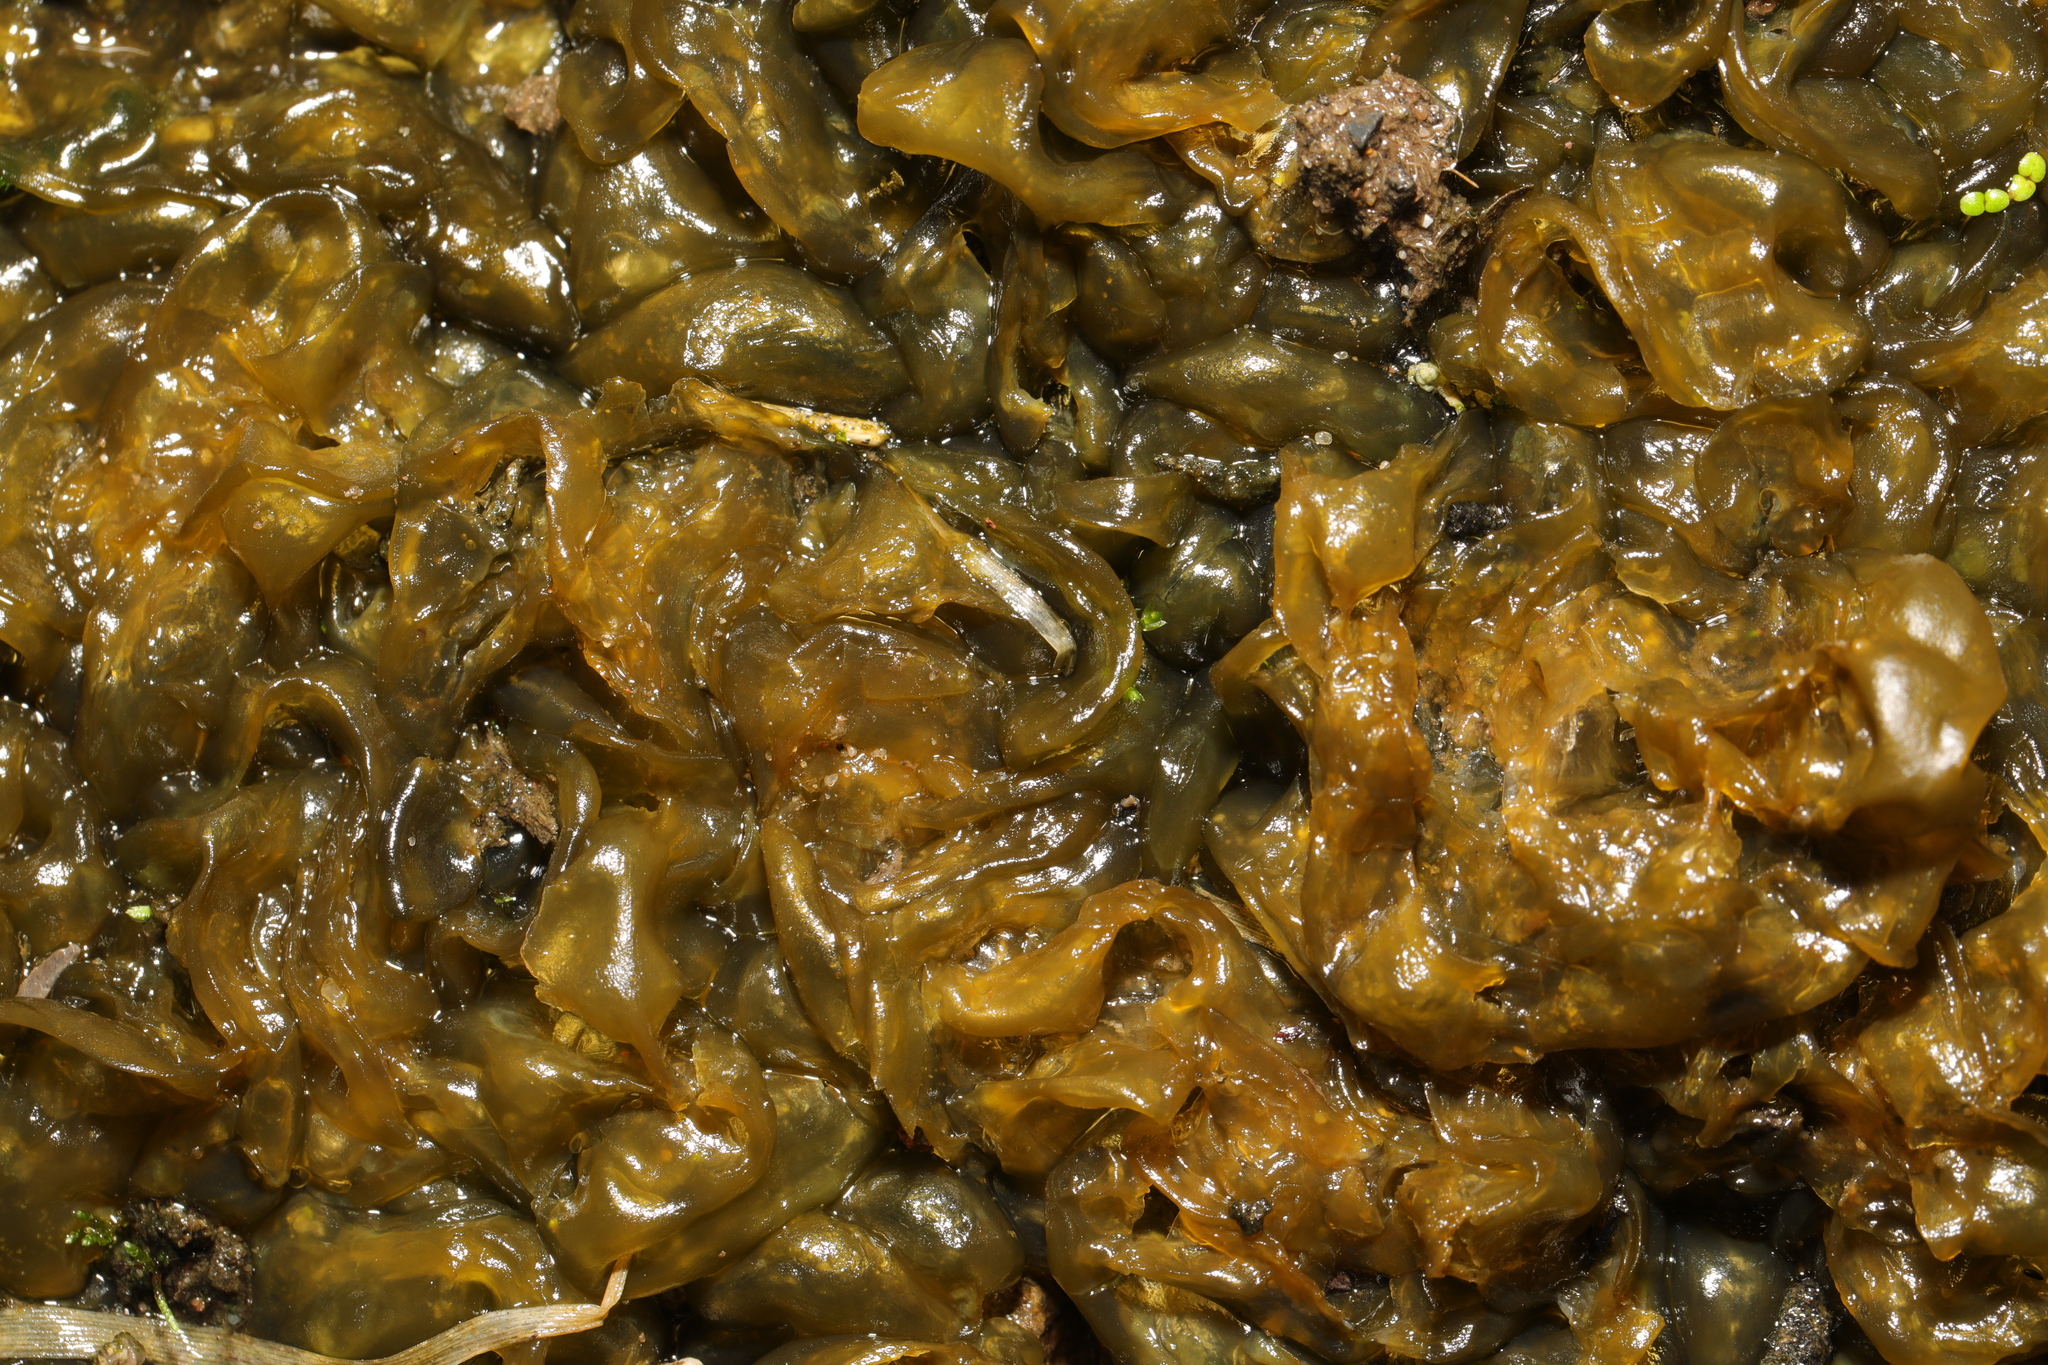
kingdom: Bacteria
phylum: Cyanobacteria
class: Cyanobacteriia
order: Cyanobacteriales
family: Nostocaceae
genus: Nostoc
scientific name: Nostoc commune
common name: Star jelly
